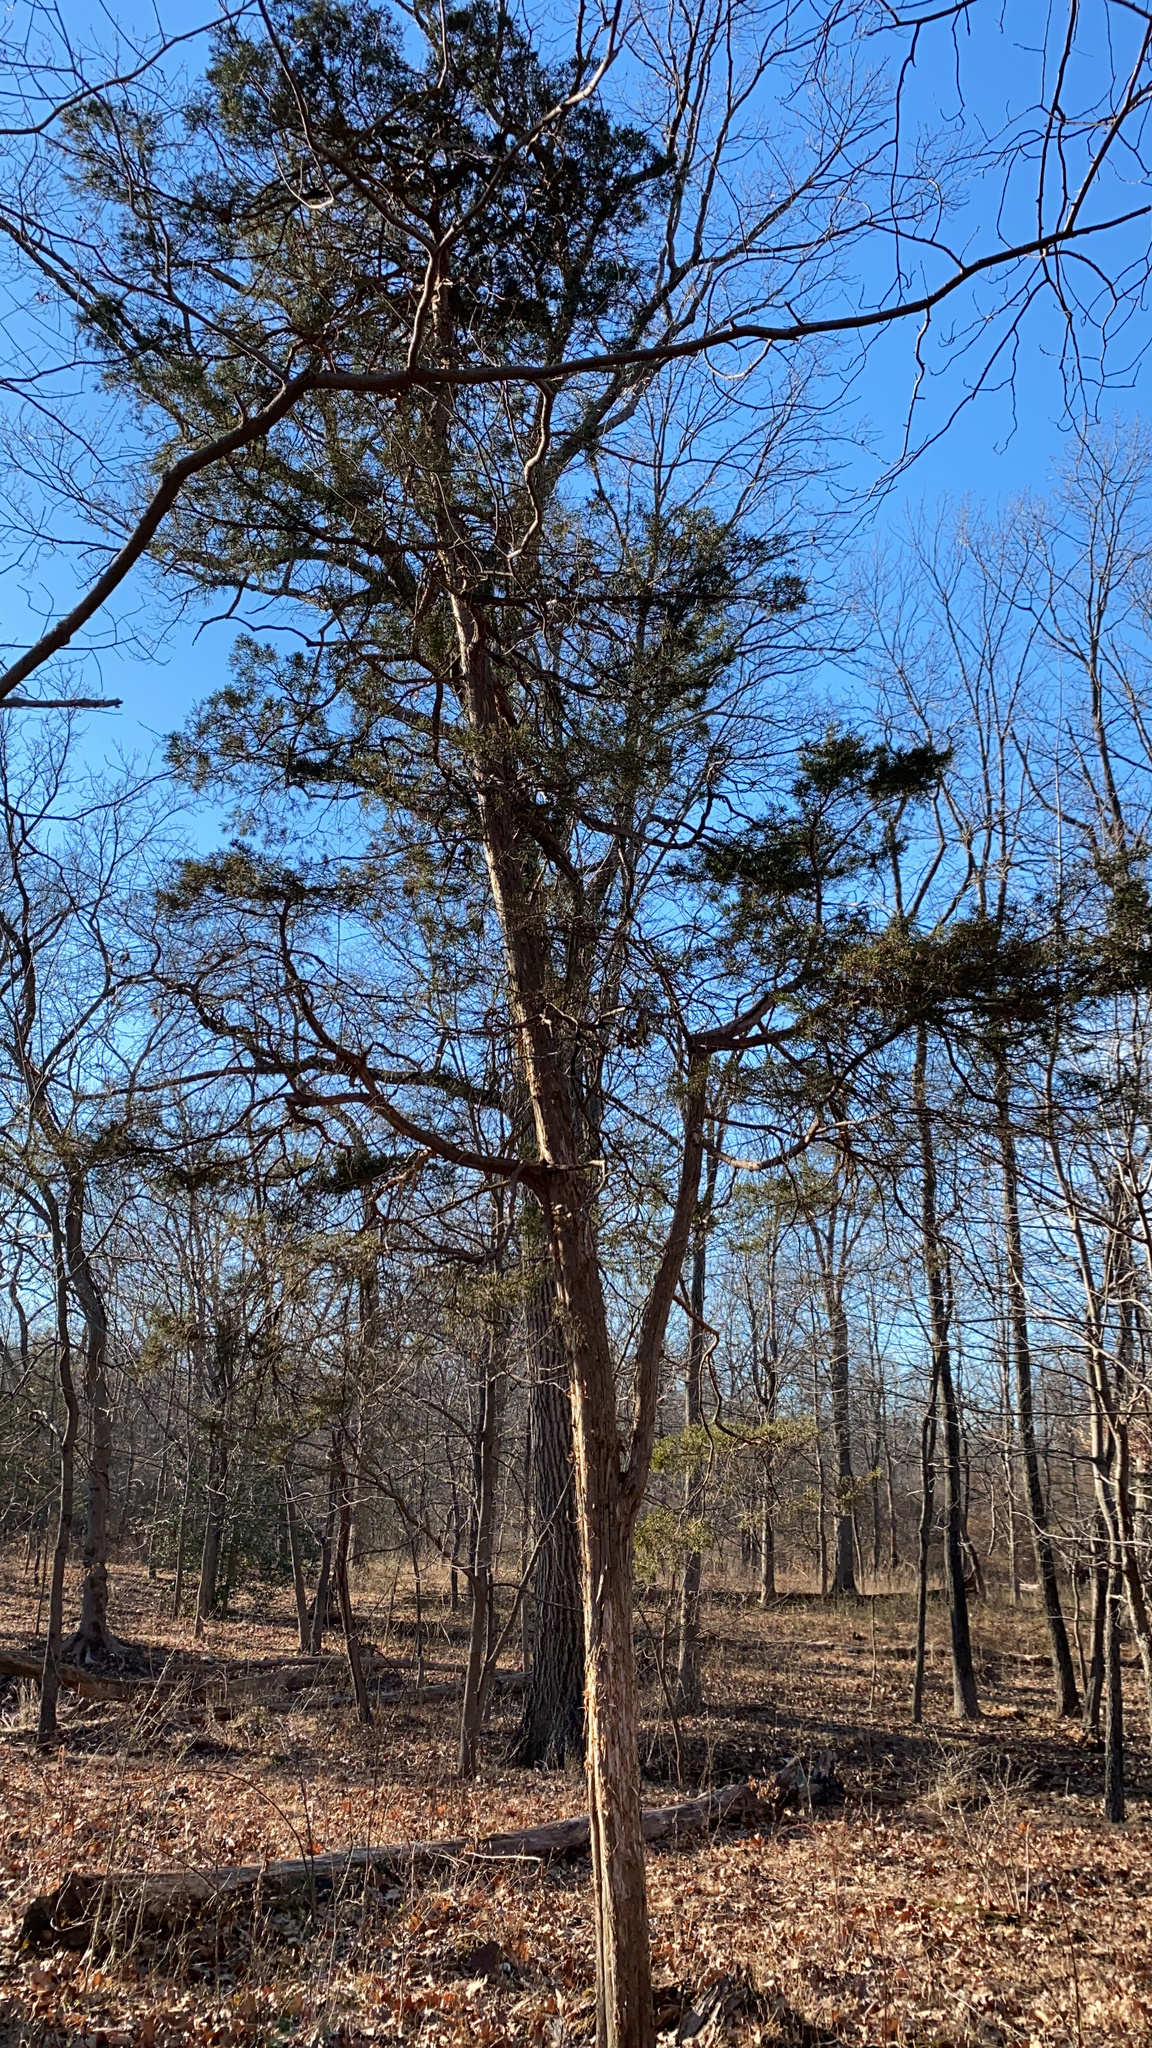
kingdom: Plantae
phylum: Tracheophyta
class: Pinopsida
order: Pinales
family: Cupressaceae
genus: Juniperus
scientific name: Juniperus virginiana
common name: Red juniper
